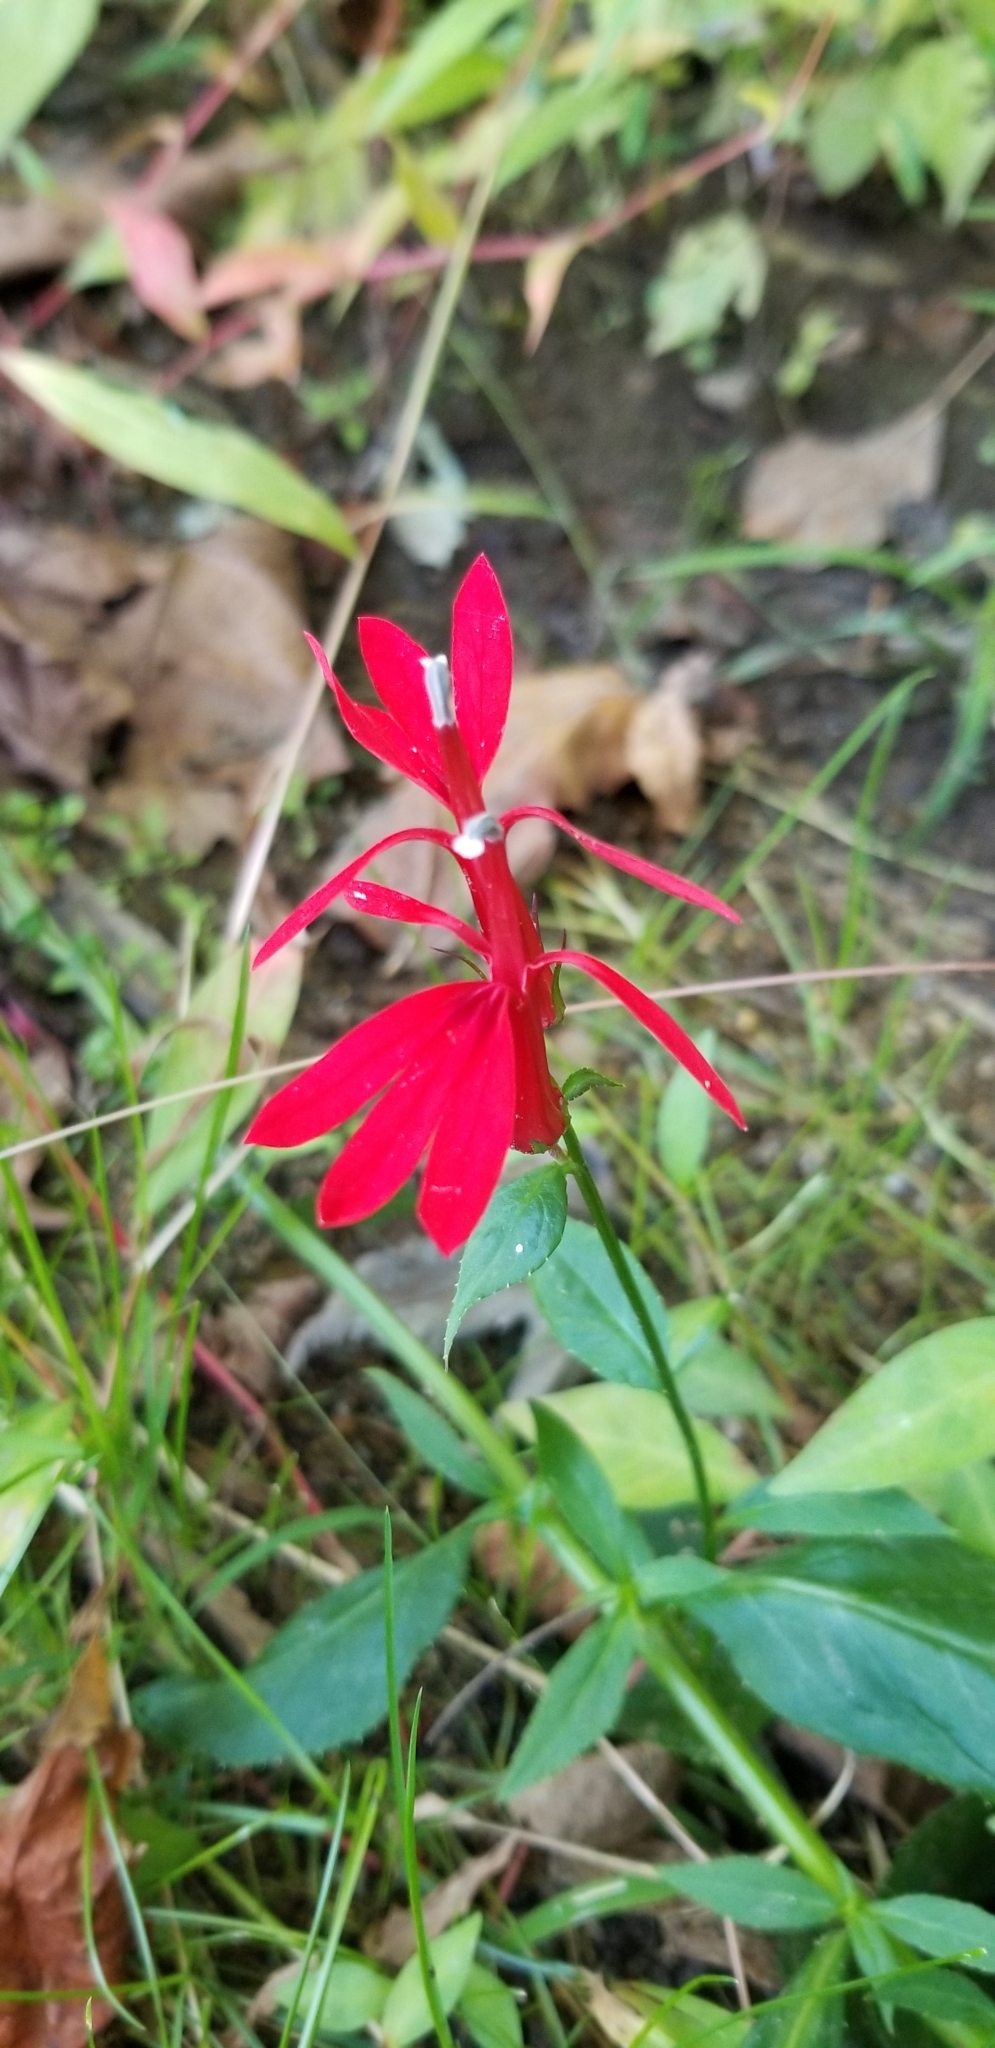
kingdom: Plantae
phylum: Tracheophyta
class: Magnoliopsida
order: Asterales
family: Campanulaceae
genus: Lobelia
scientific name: Lobelia cardinalis
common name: Cardinal flower
